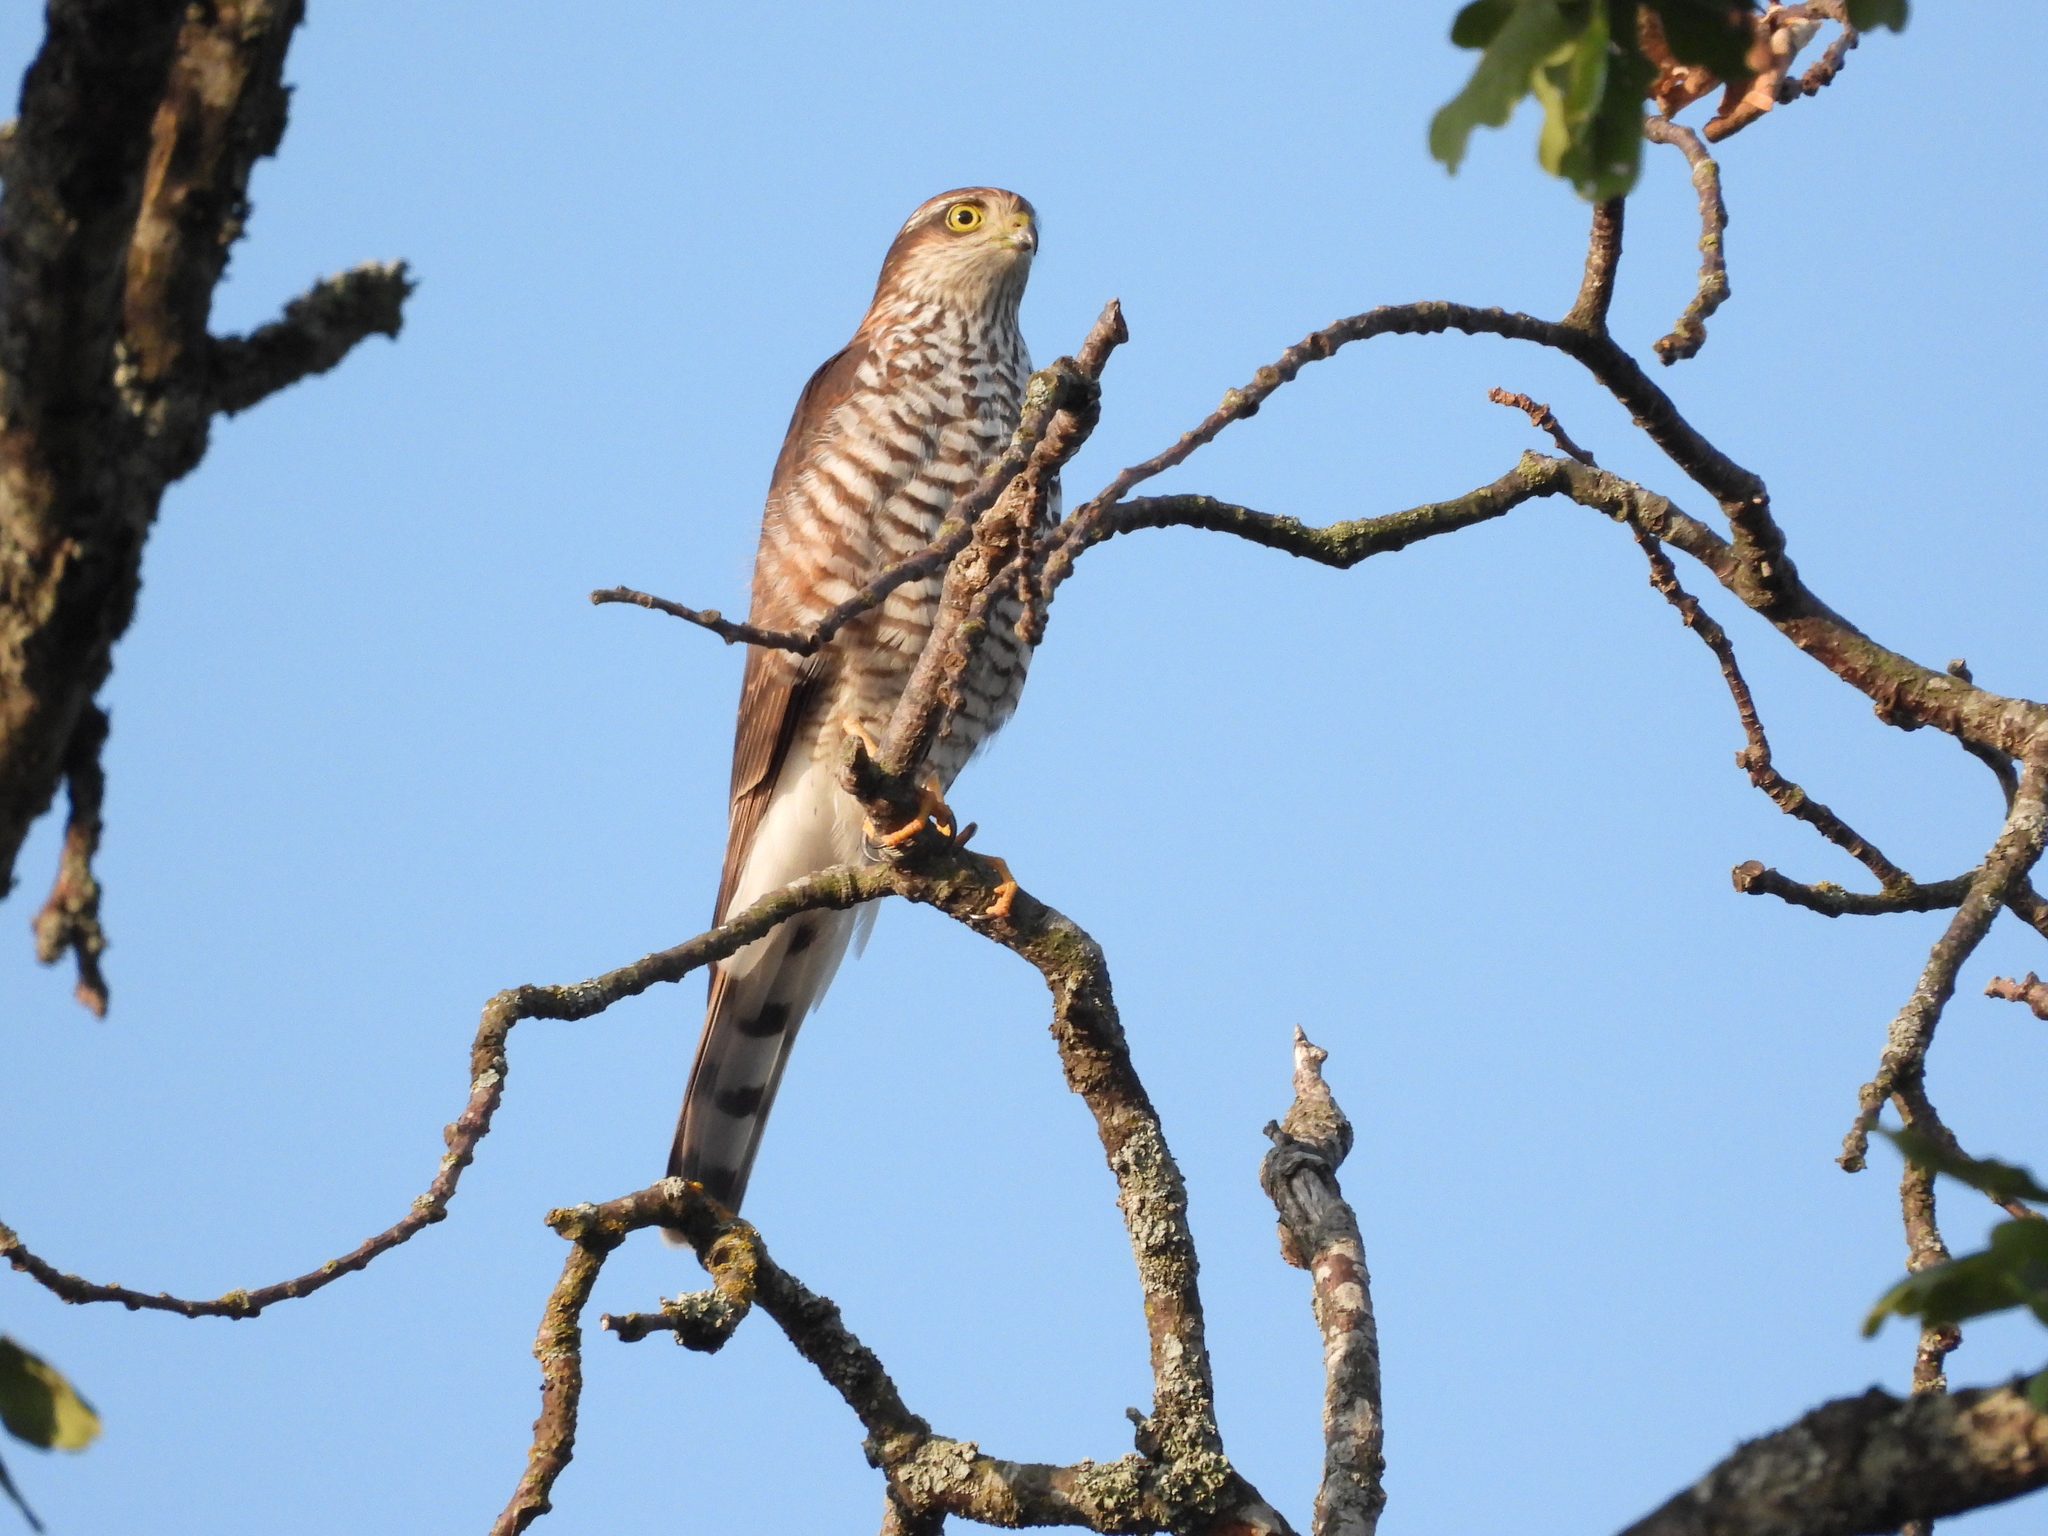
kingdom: Animalia
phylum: Chordata
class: Aves
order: Accipitriformes
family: Accipitridae
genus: Accipiter
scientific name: Accipiter nisus
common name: Eurasian sparrowhawk
